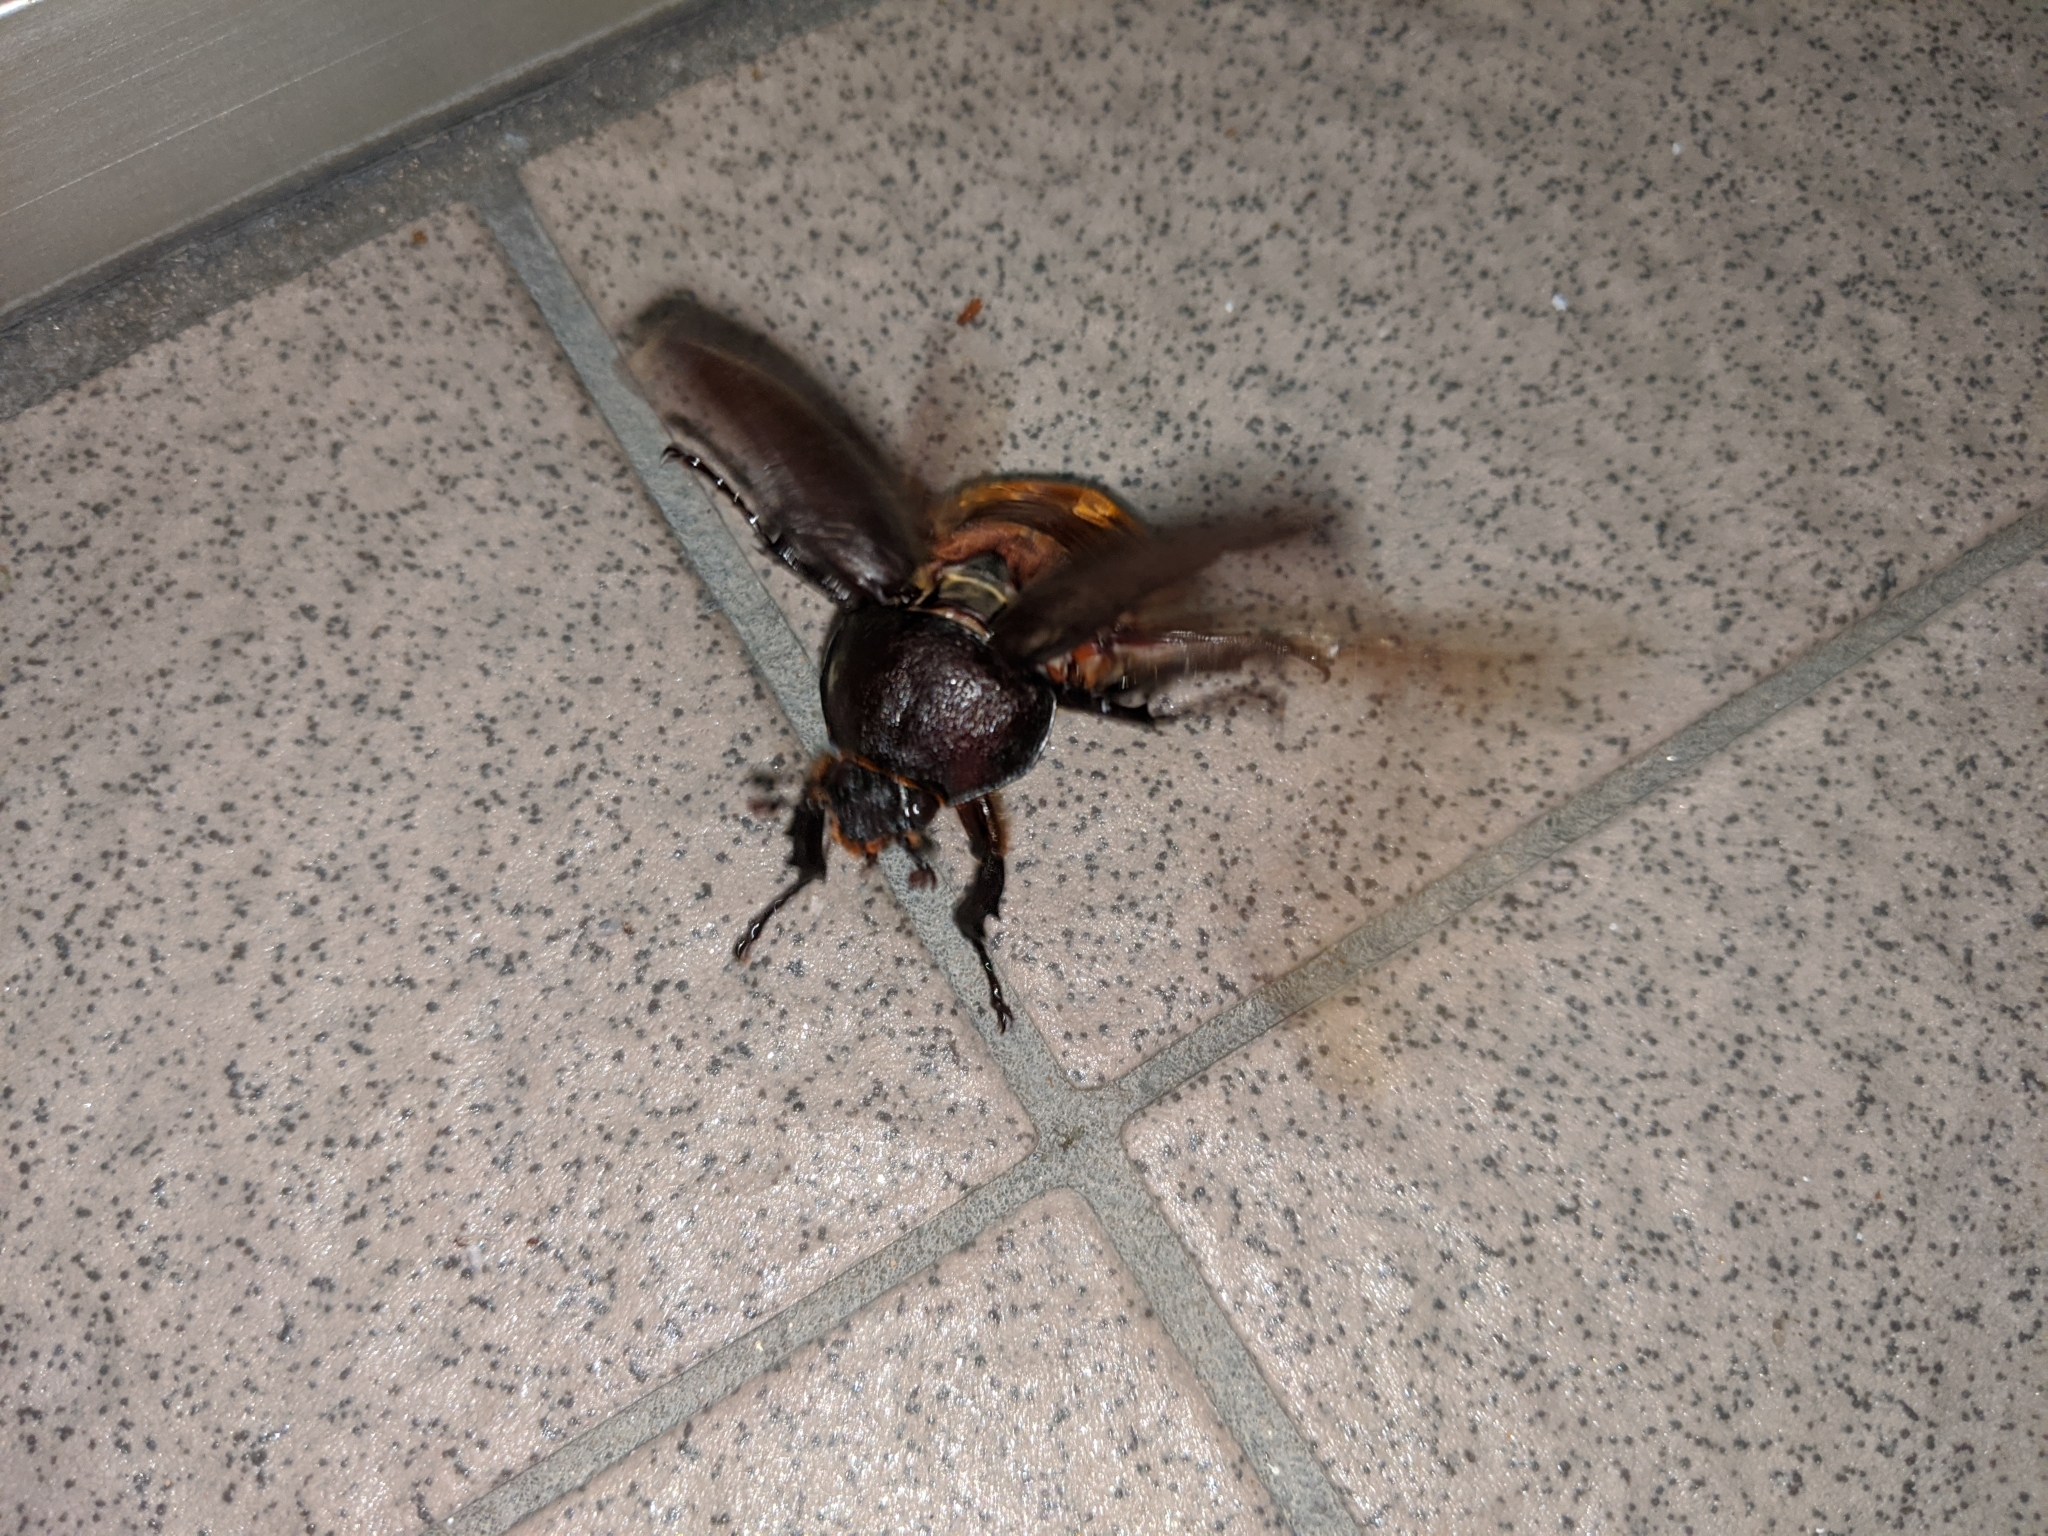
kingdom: Animalia
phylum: Arthropoda
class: Insecta
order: Coleoptera
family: Scarabaeidae
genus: Trypoxylus
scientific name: Trypoxylus dichotomus
